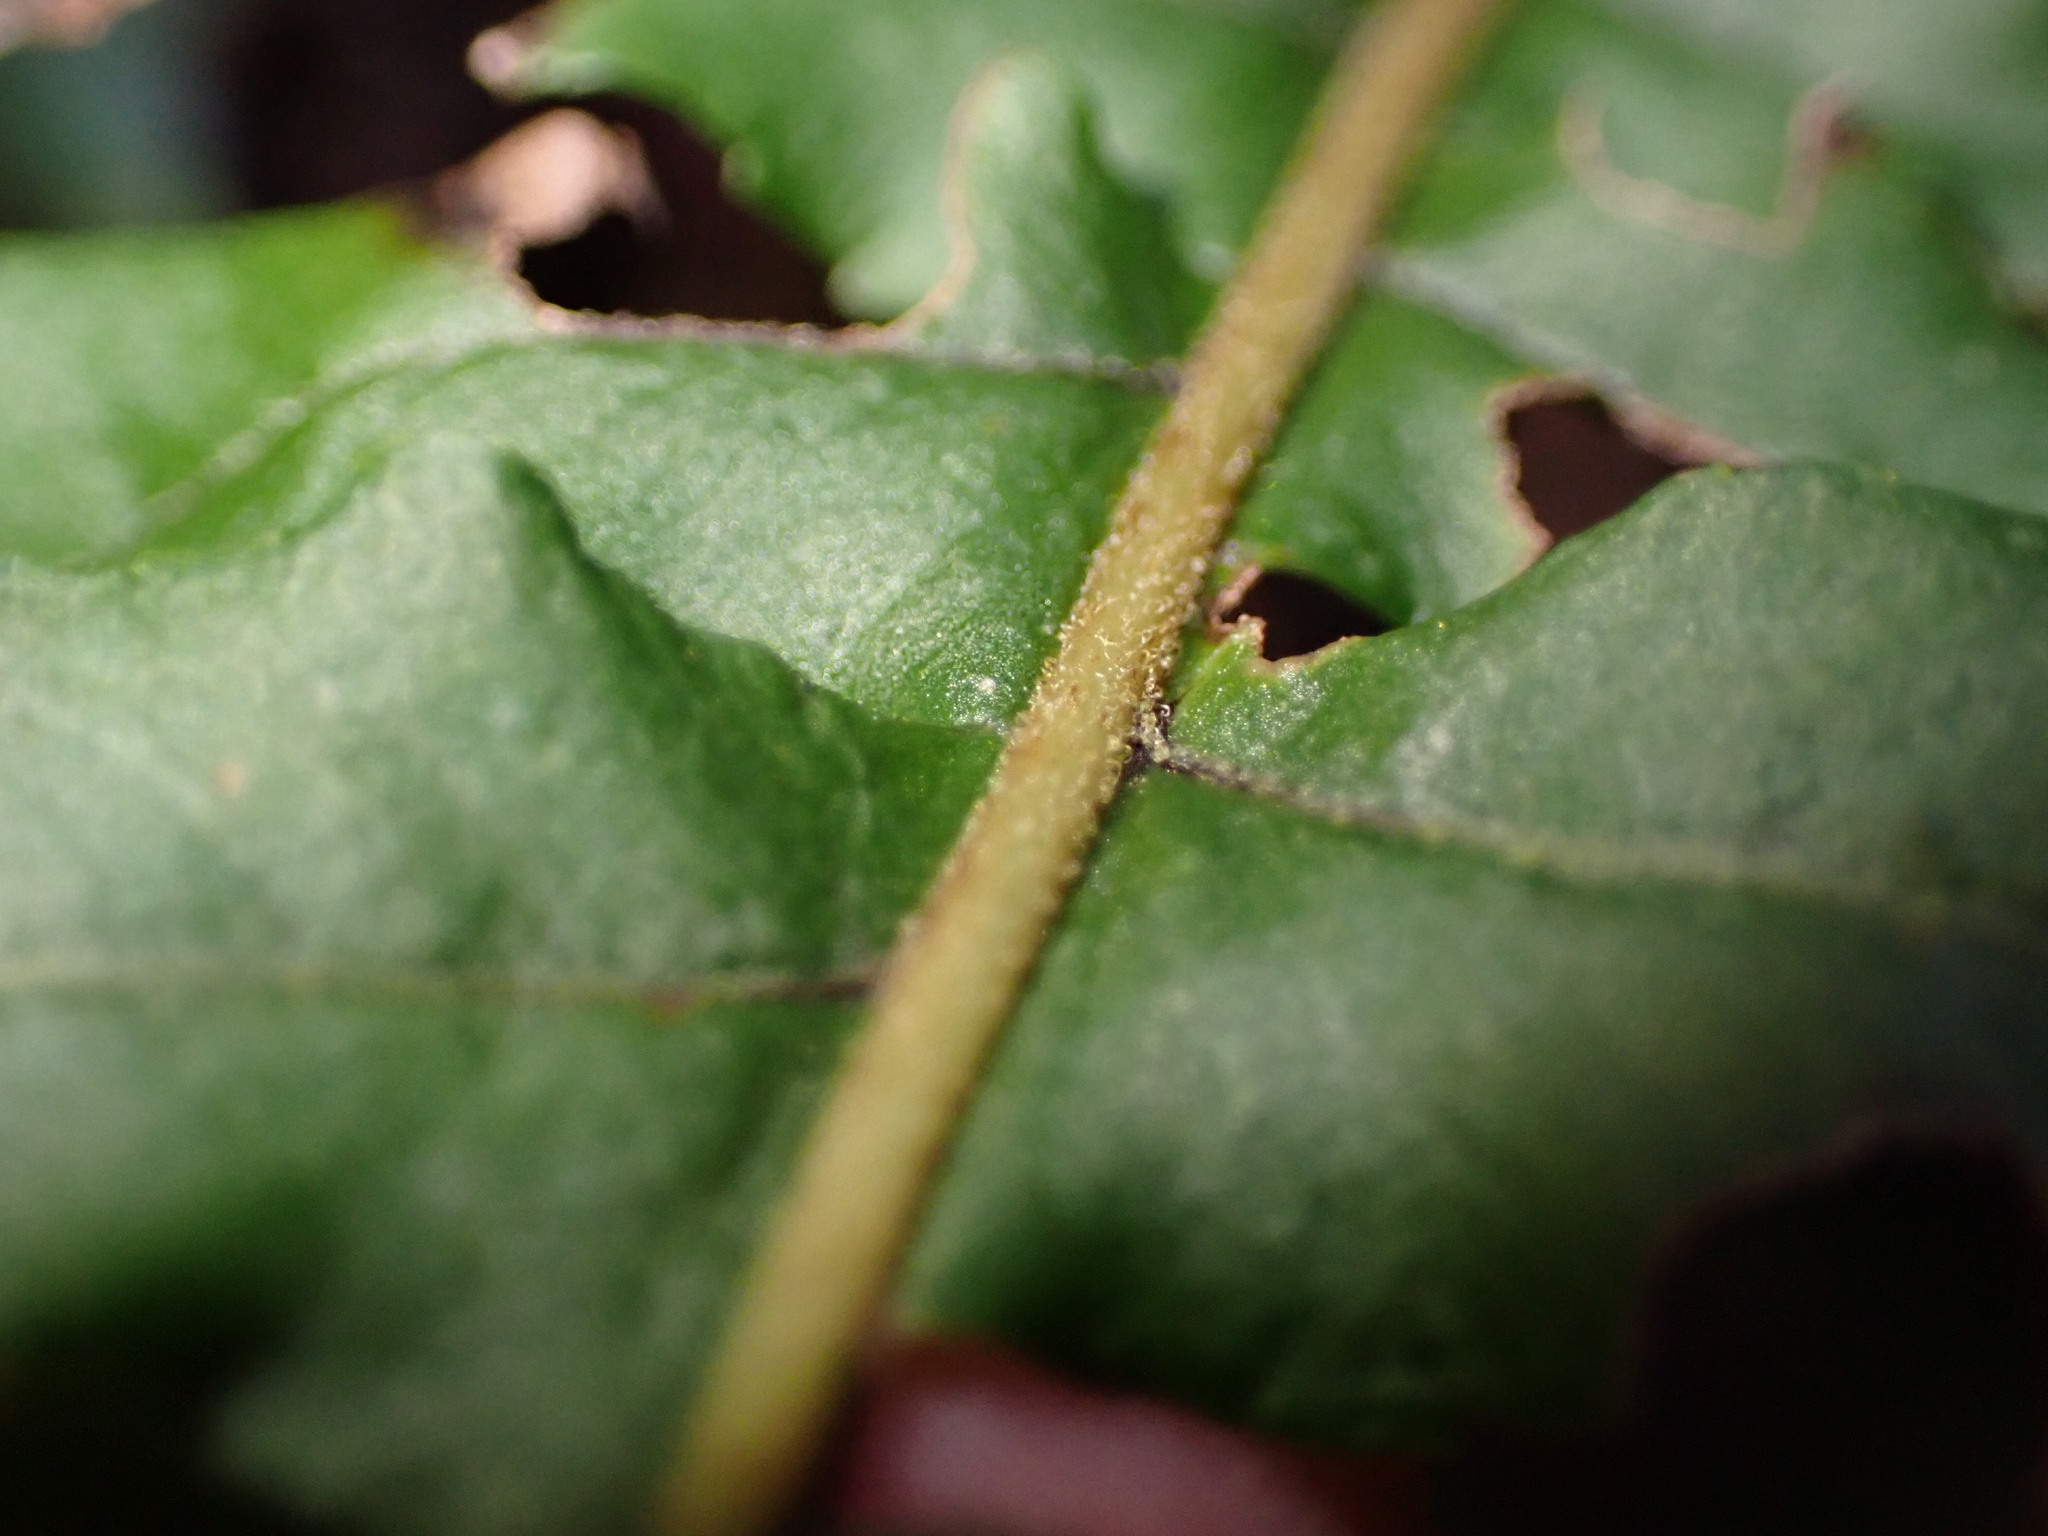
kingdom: Plantae
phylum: Tracheophyta
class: Polypodiopsida
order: Polypodiales
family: Polypodiaceae
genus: Polypodium
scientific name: Polypodium glycyrrhiza
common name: Licorice fern
